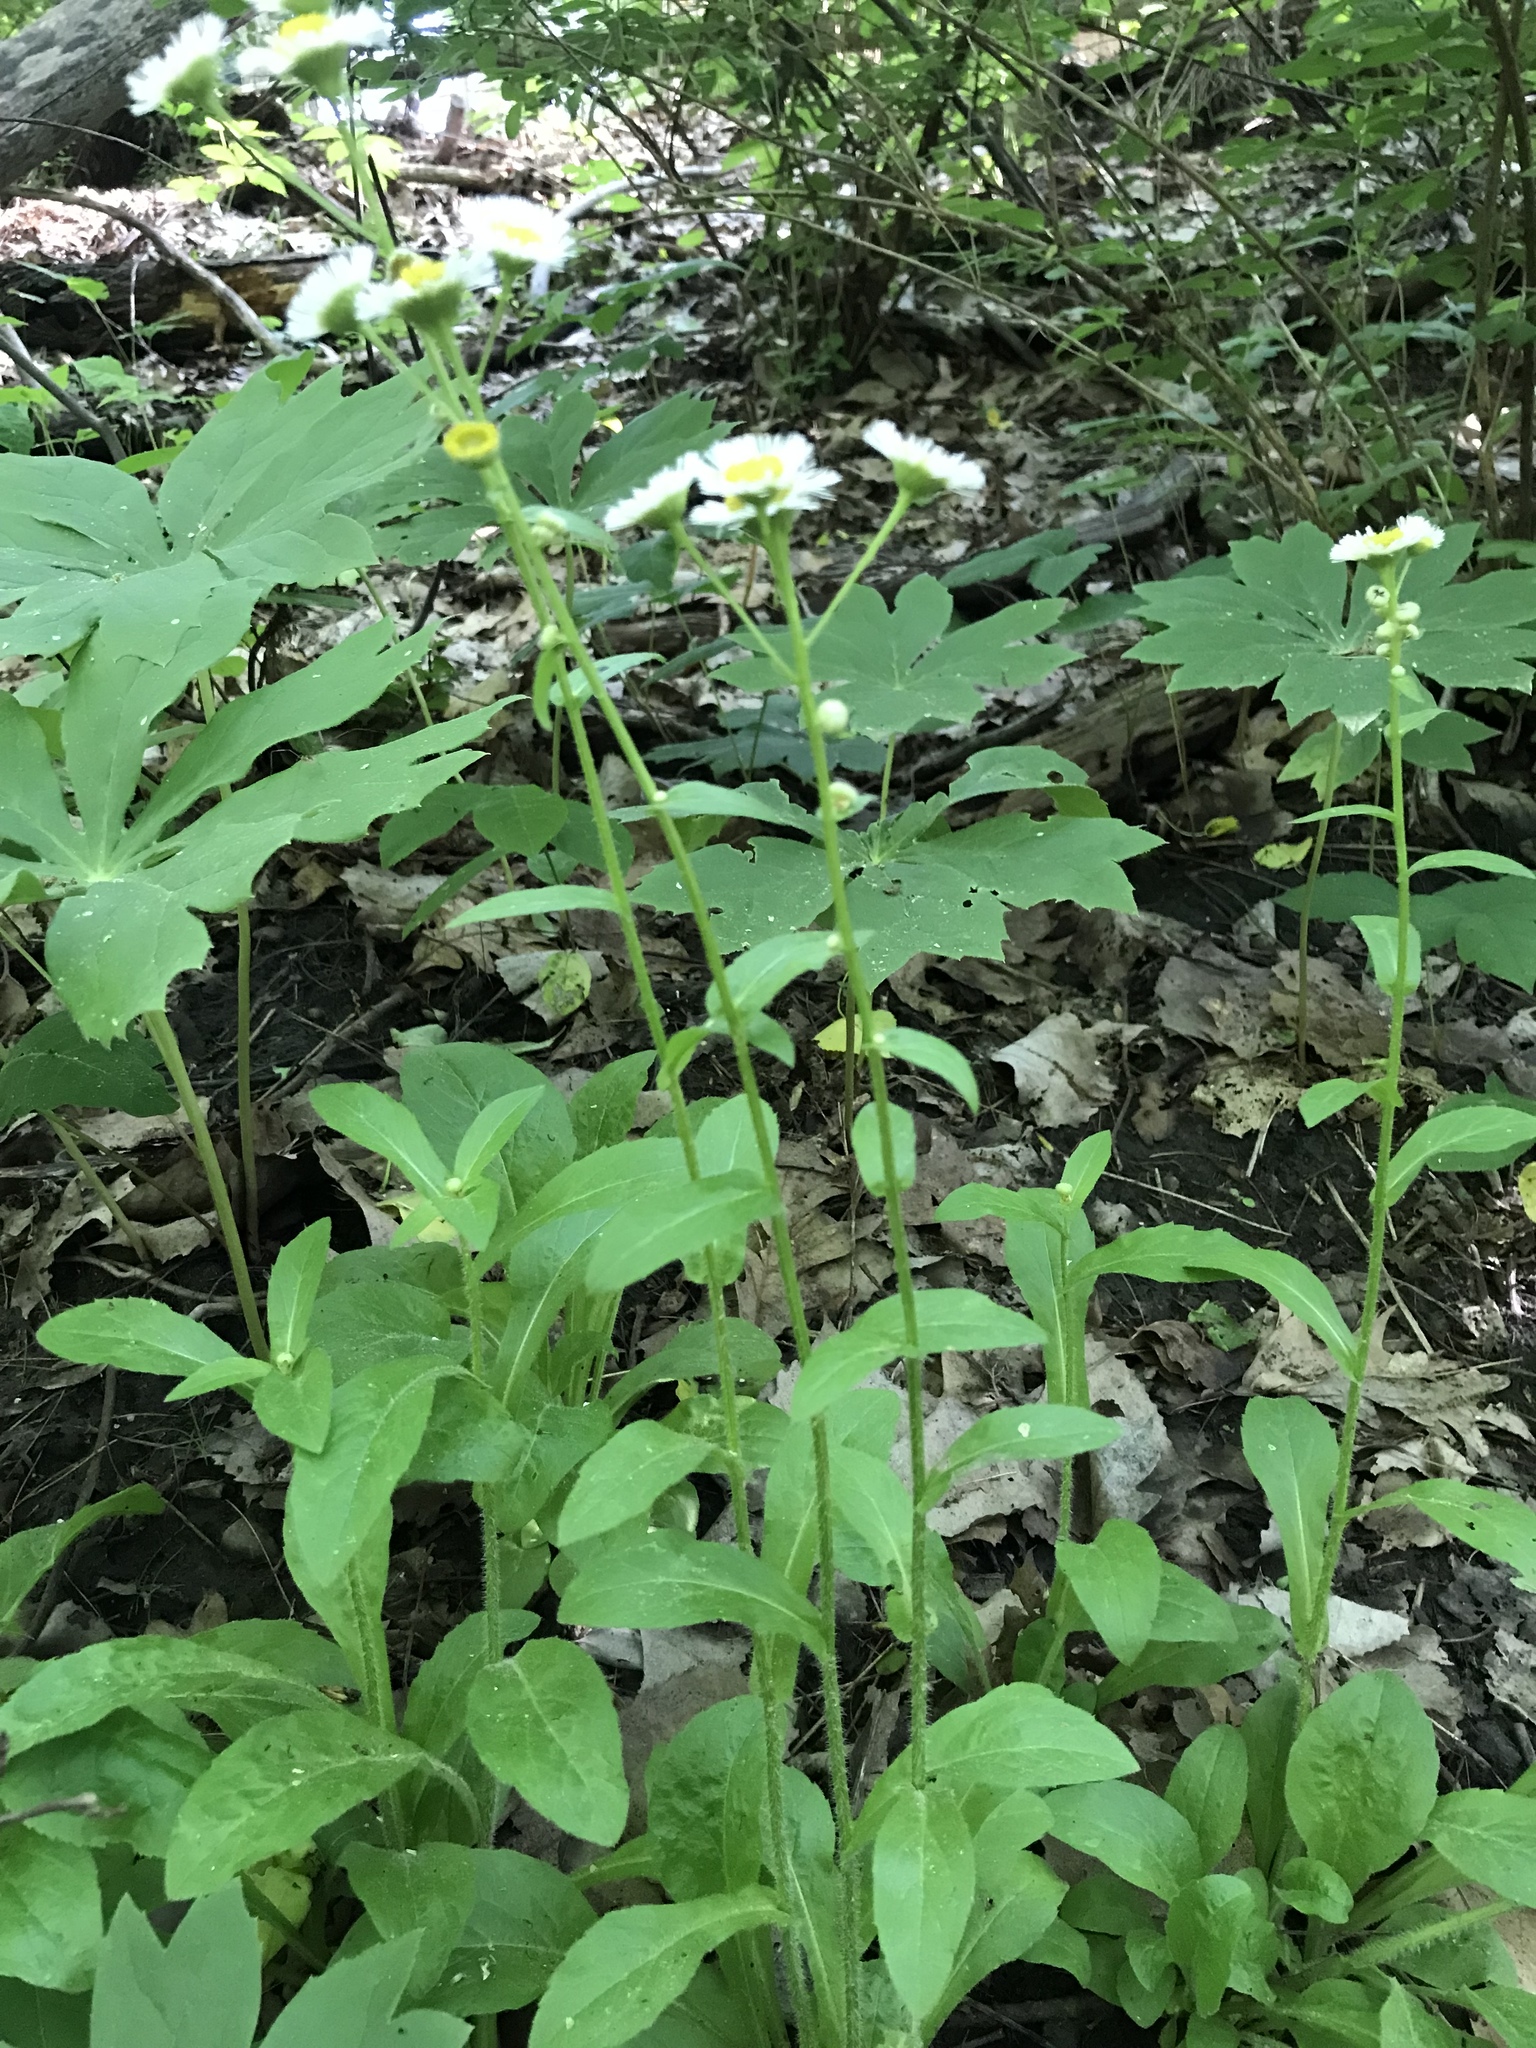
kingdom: Plantae
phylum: Tracheophyta
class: Magnoliopsida
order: Asterales
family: Asteraceae
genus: Erigeron
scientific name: Erigeron philadelphicus
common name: Robin's-plantain
